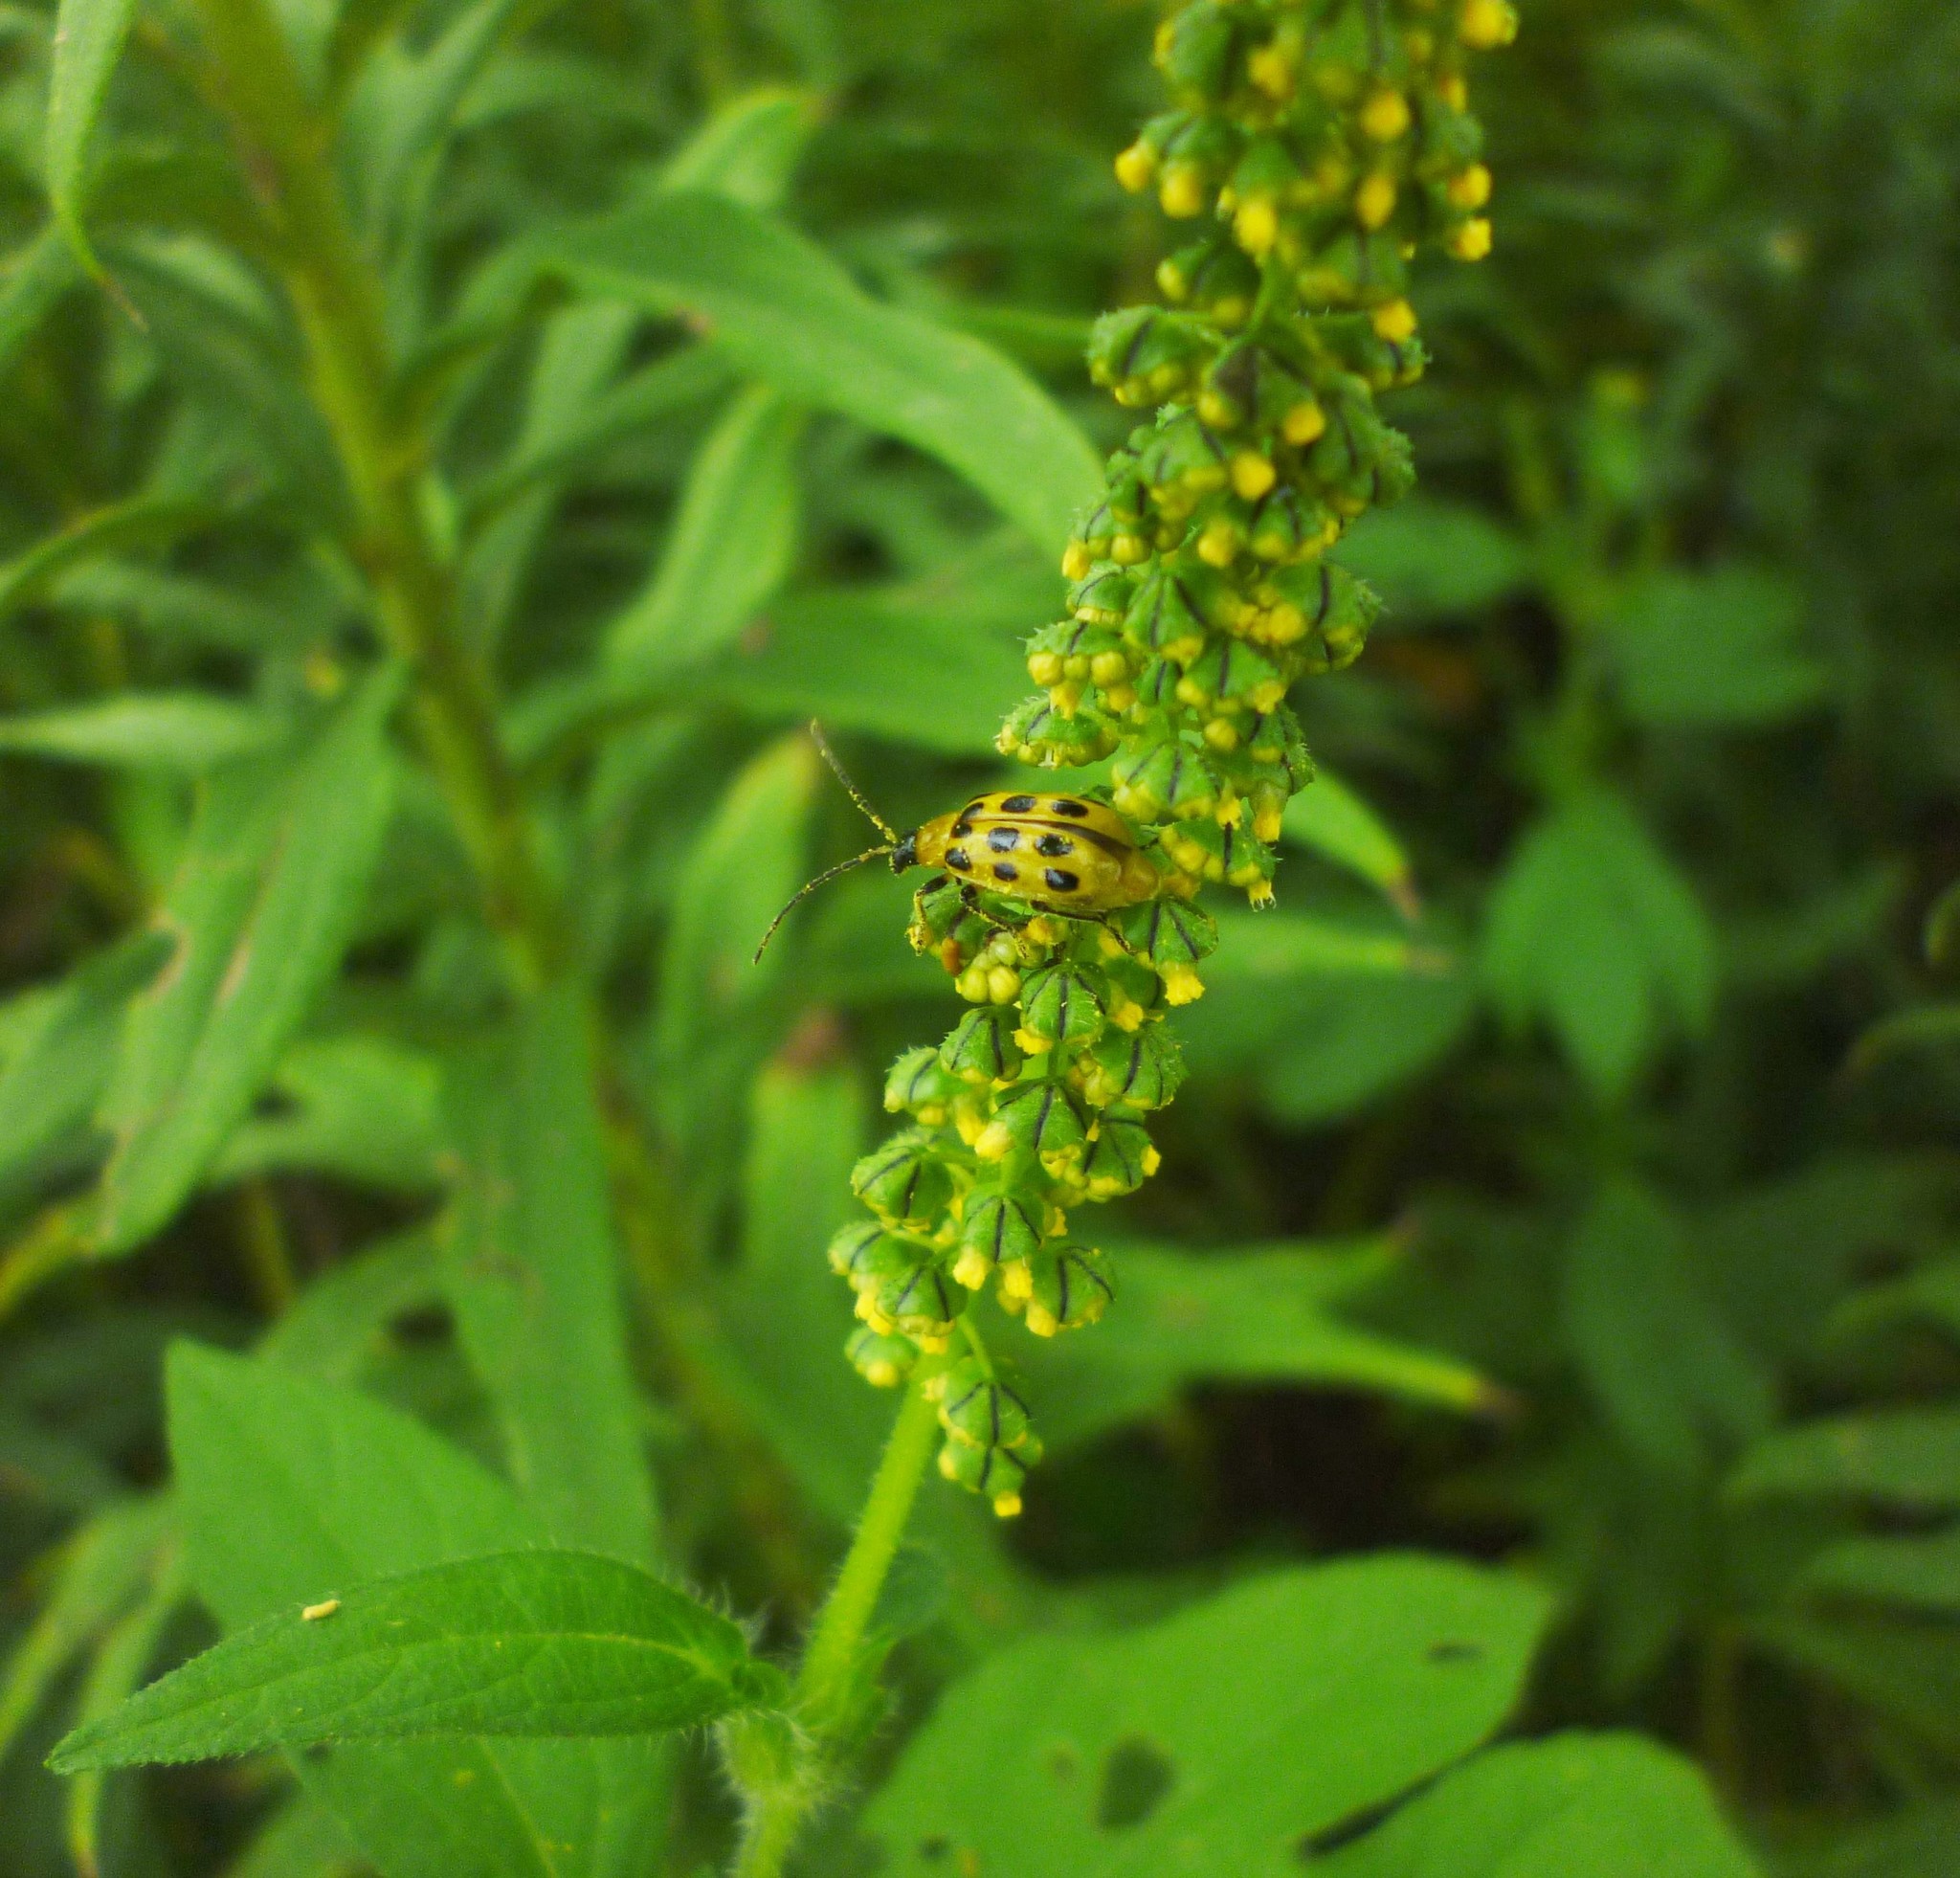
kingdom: Plantae
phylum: Tracheophyta
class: Magnoliopsida
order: Asterales
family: Asteraceae
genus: Ambrosia
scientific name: Ambrosia trifida
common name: Giant ragweed
